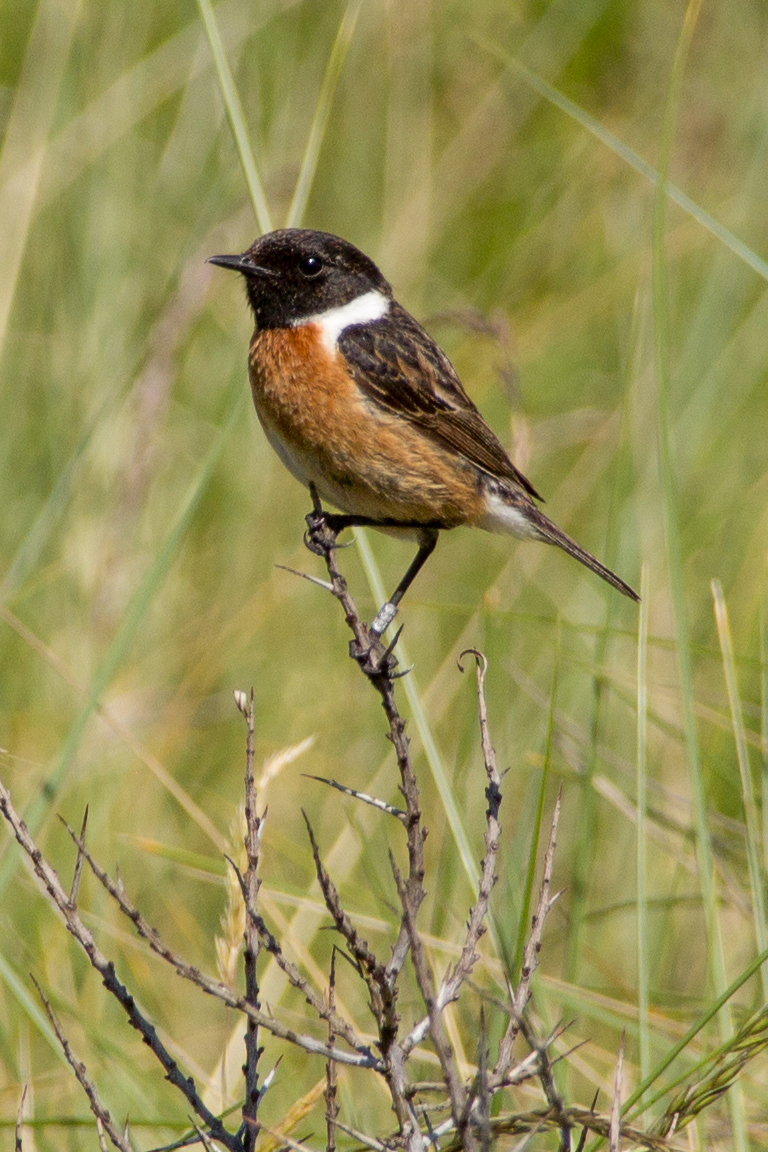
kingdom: Animalia
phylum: Chordata
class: Aves
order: Passeriformes
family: Muscicapidae
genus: Saxicola
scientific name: Saxicola rubicola
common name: European stonechat
